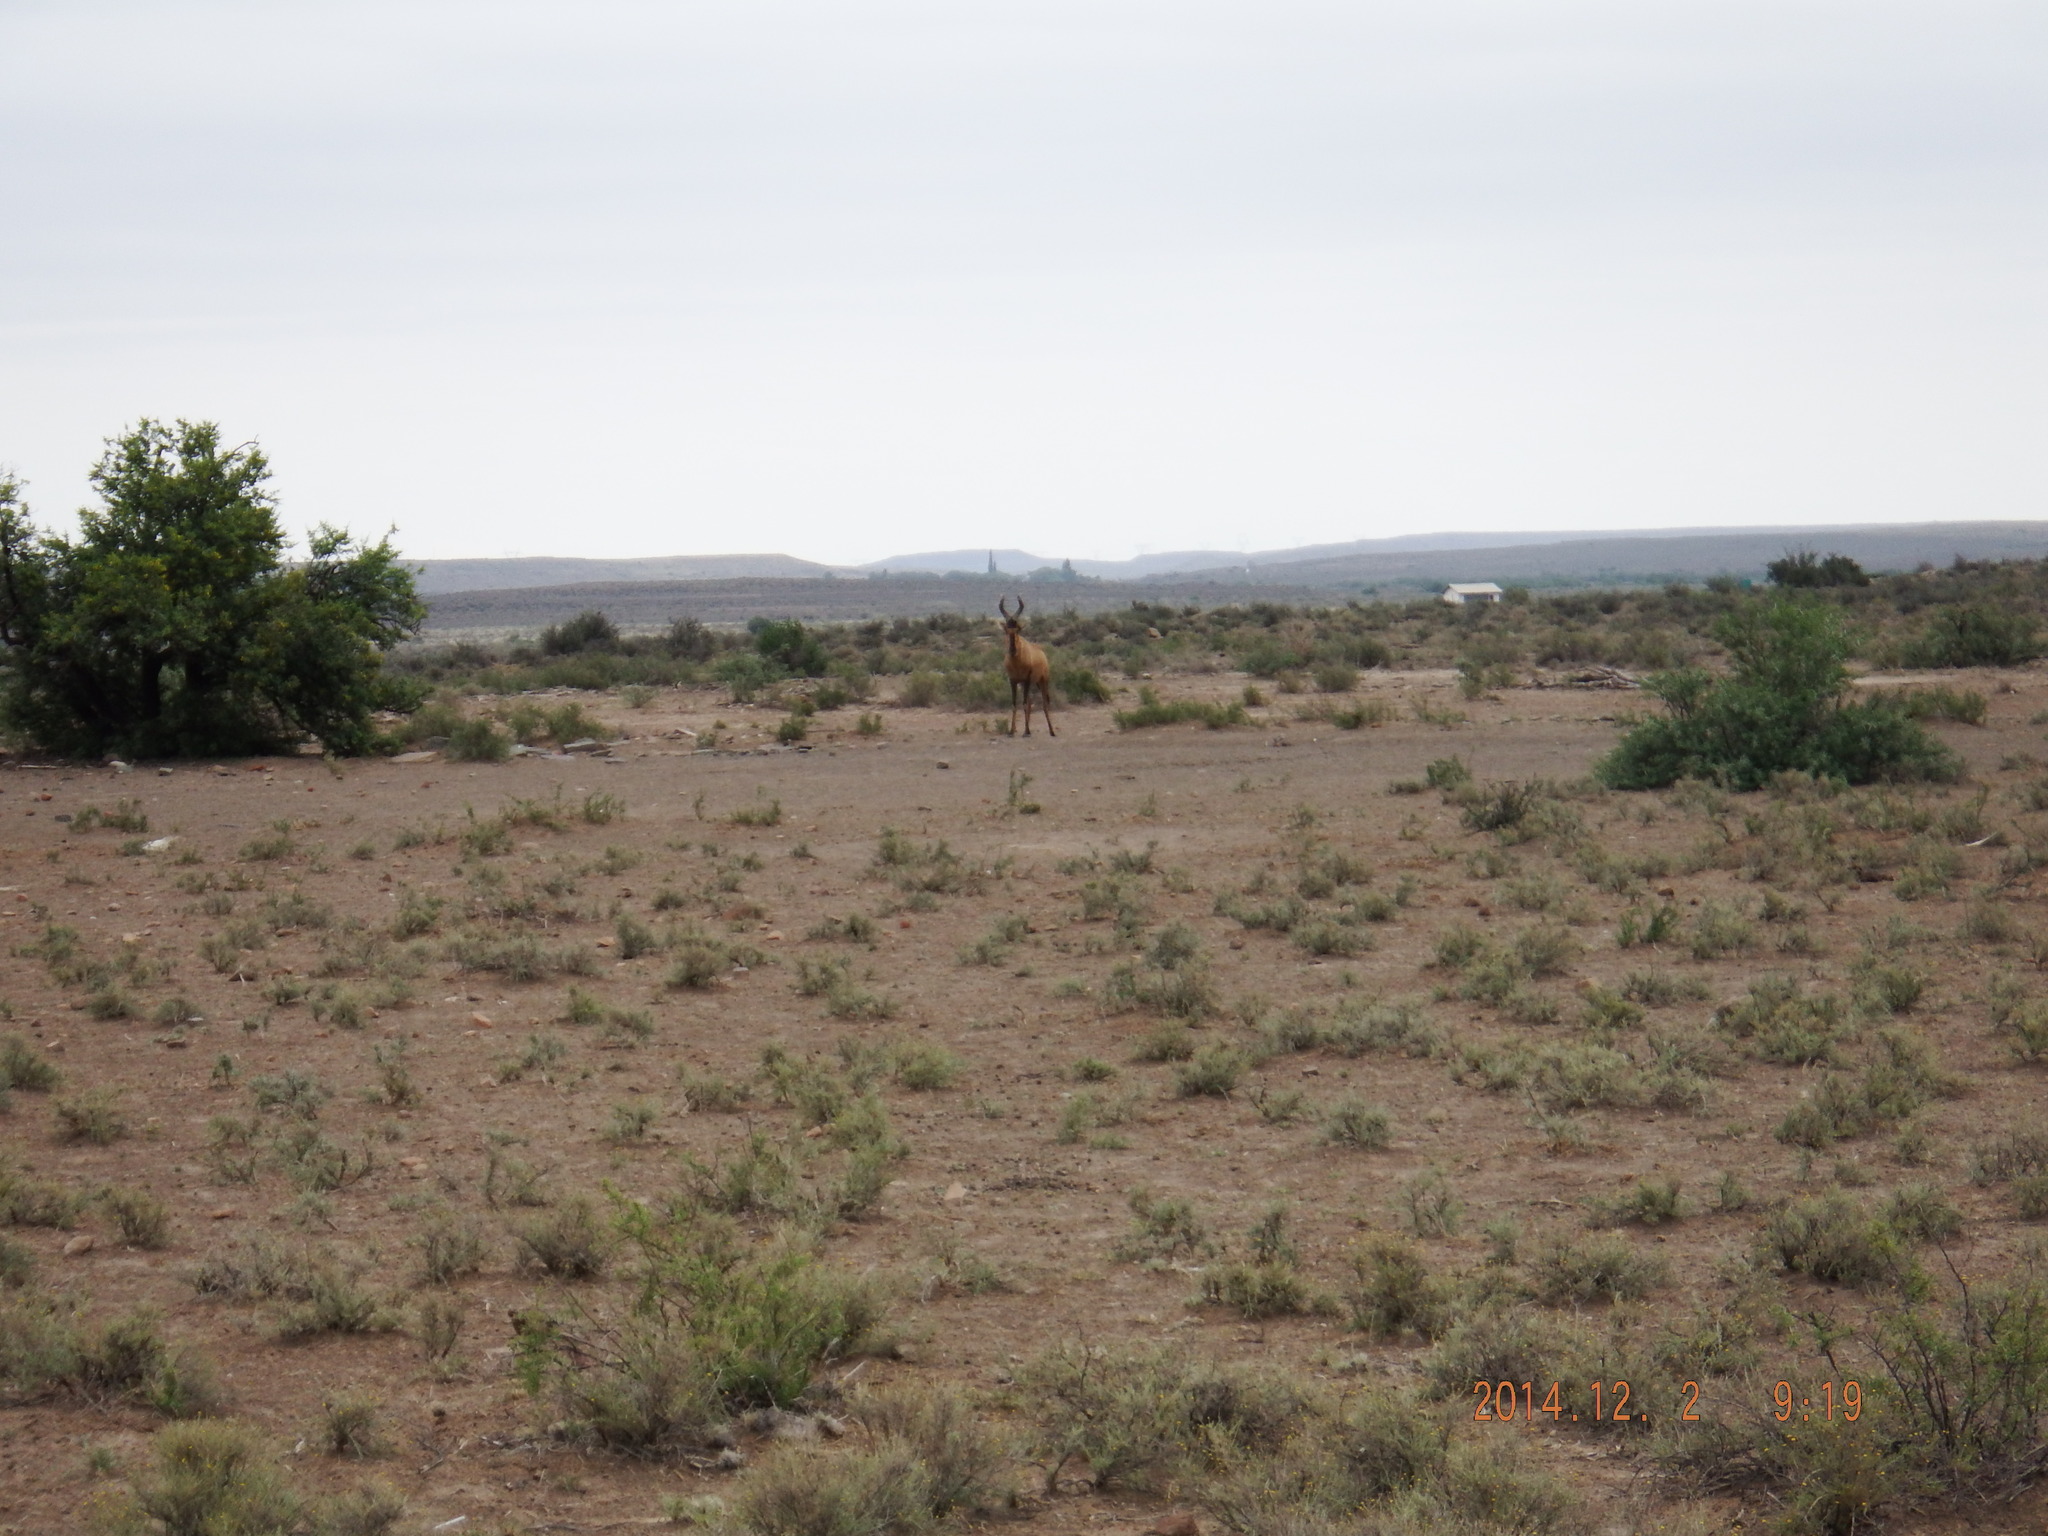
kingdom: Animalia
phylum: Chordata
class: Mammalia
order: Artiodactyla
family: Bovidae
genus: Alcelaphus
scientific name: Alcelaphus caama
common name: Red hartebeest
